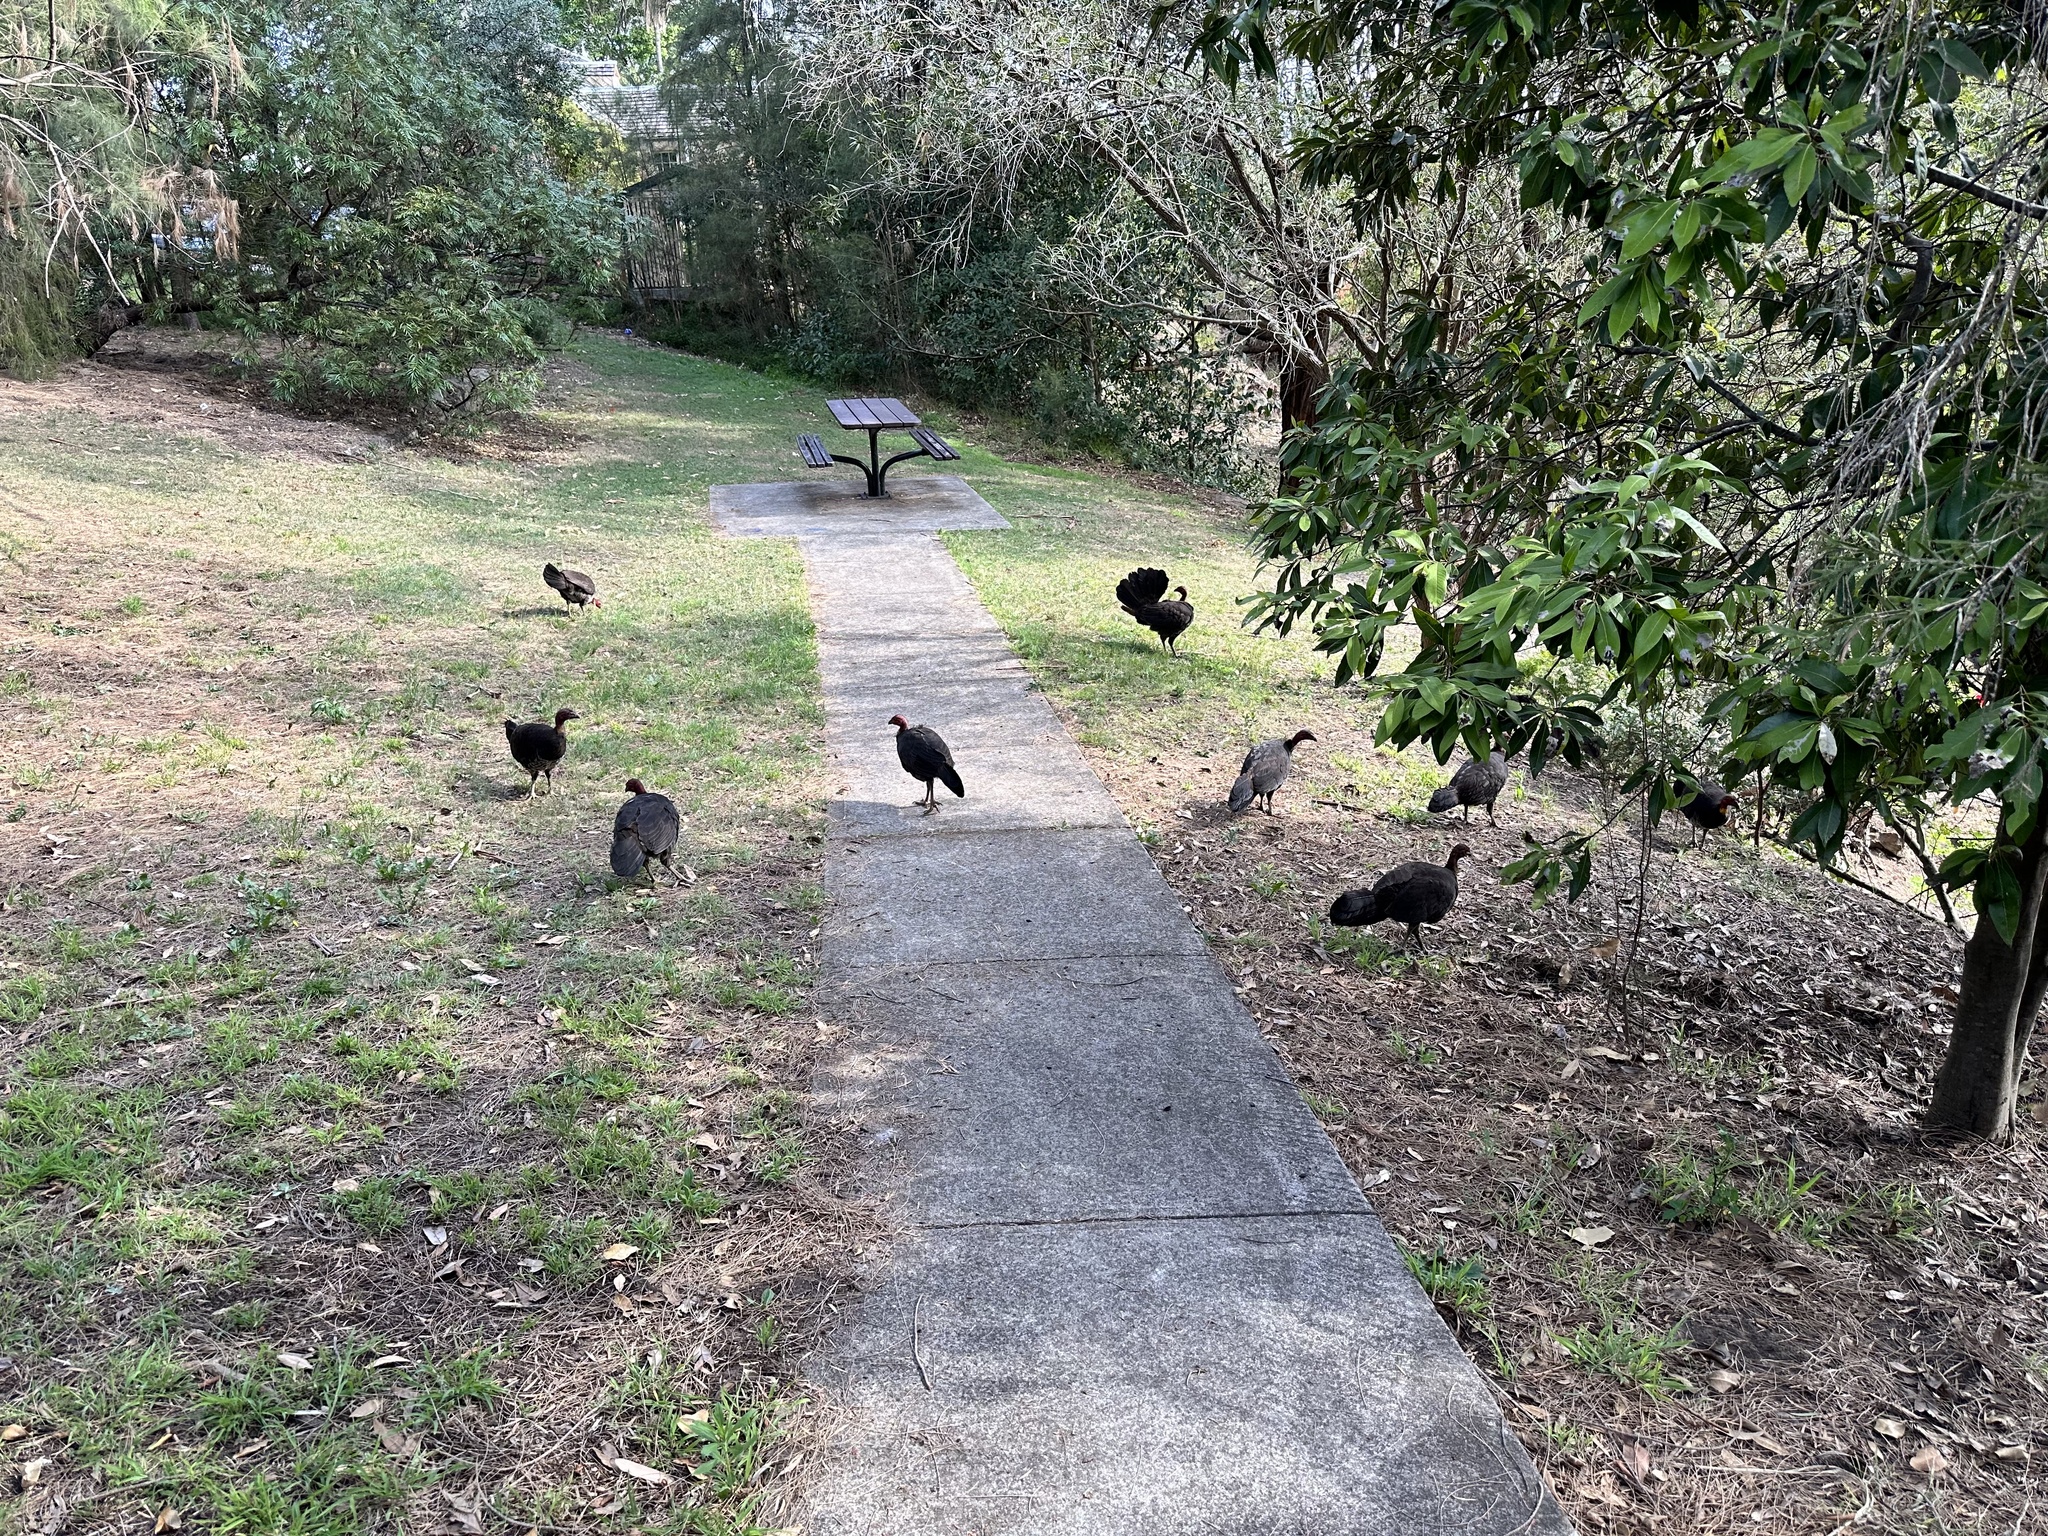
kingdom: Animalia
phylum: Chordata
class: Aves
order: Galliformes
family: Megapodiidae
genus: Alectura
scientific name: Alectura lathami
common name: Australian brushturkey
